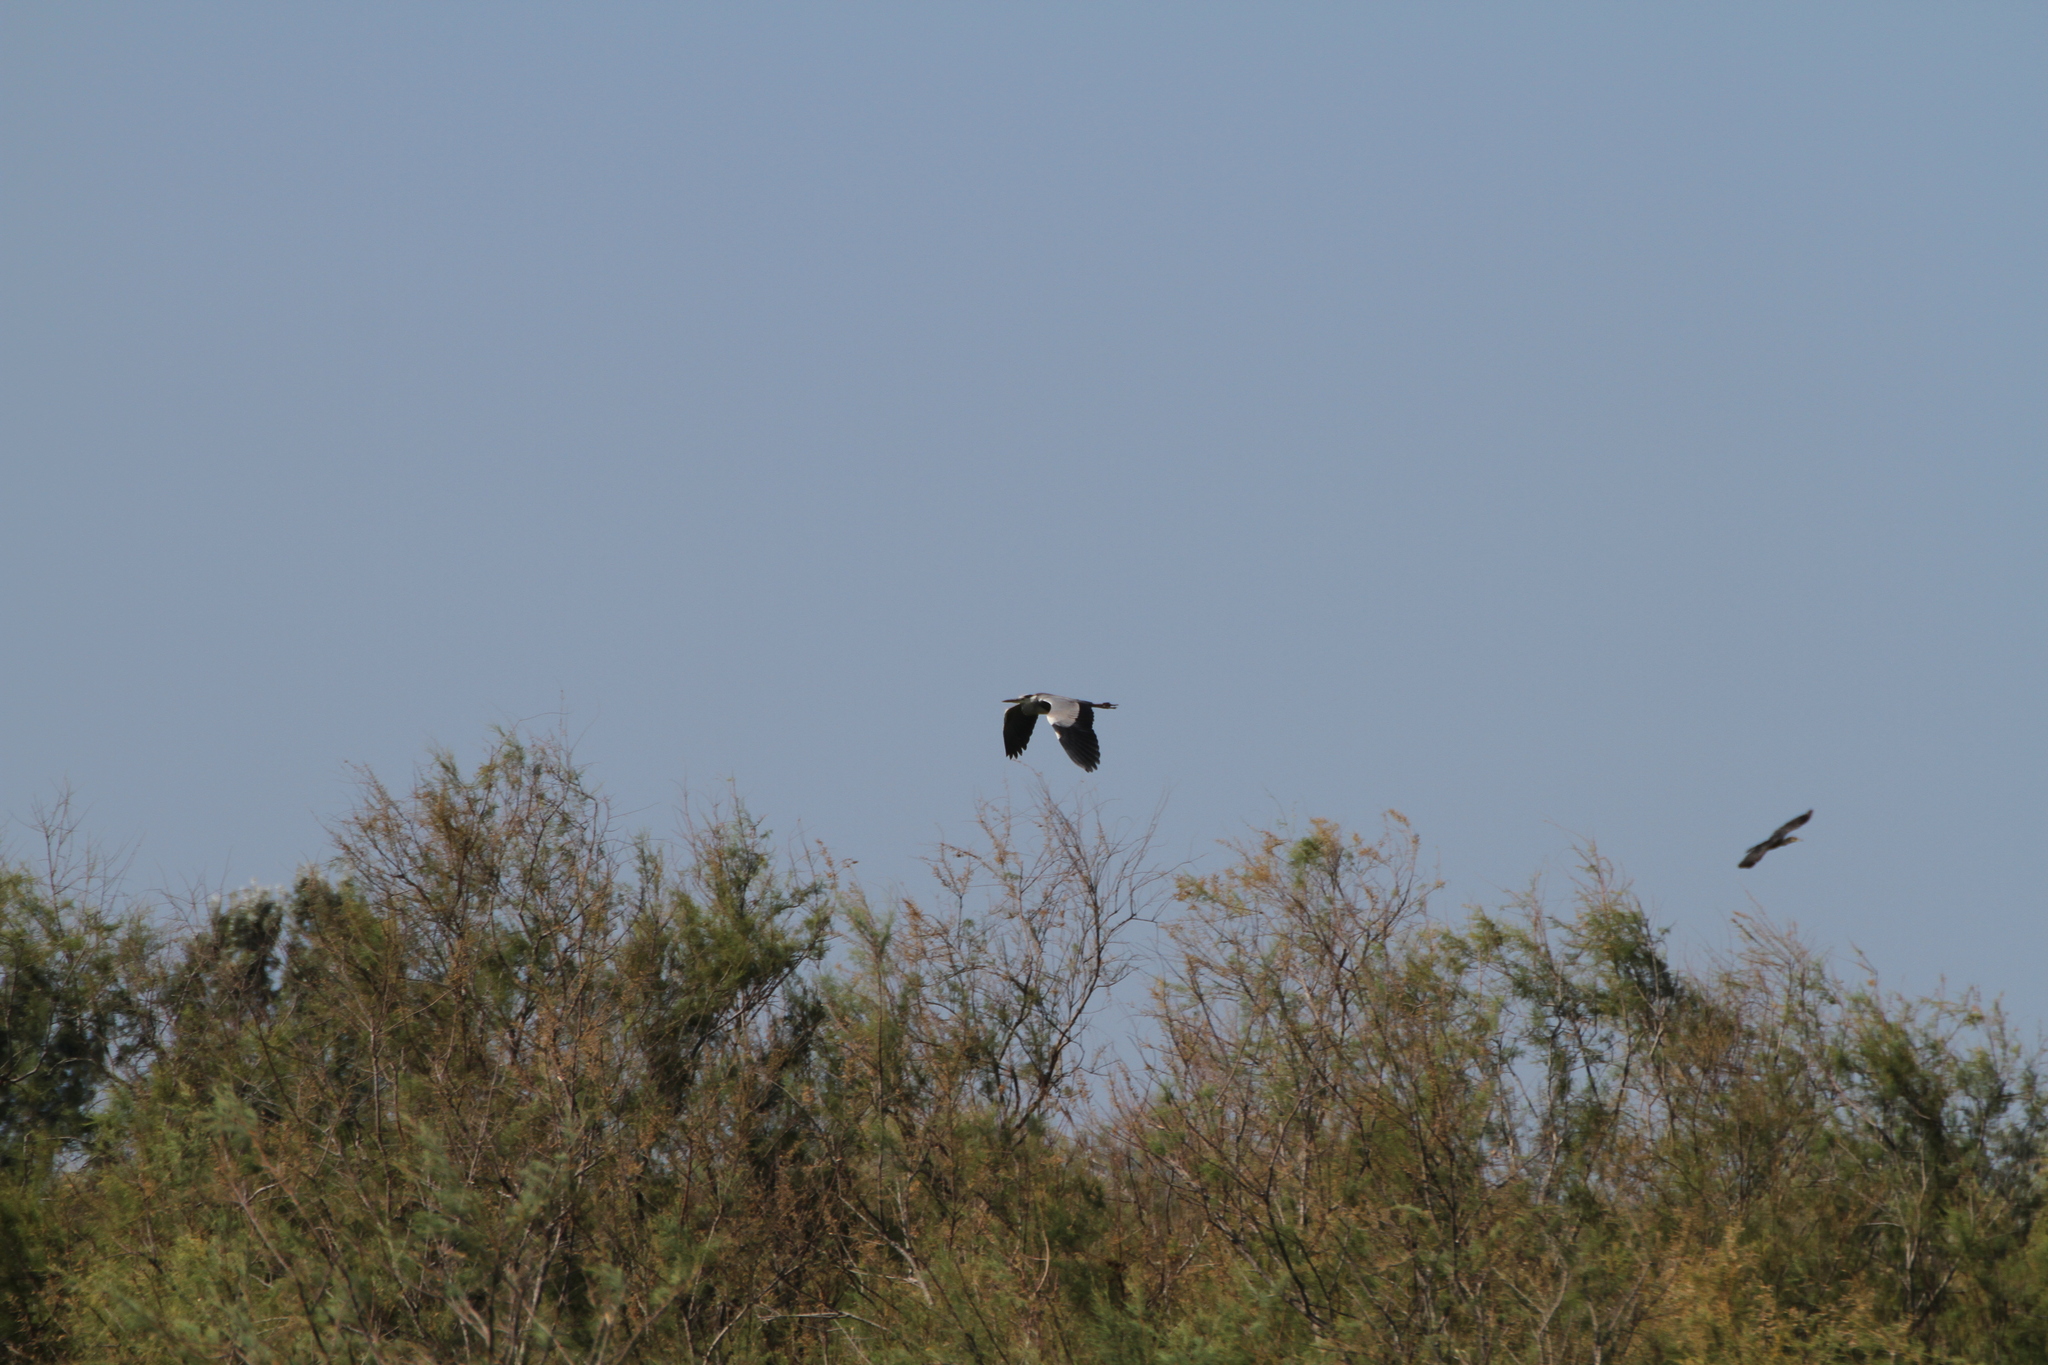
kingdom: Animalia
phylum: Chordata
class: Aves
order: Pelecaniformes
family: Ardeidae
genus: Ardea
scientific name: Ardea cinerea
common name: Grey heron
